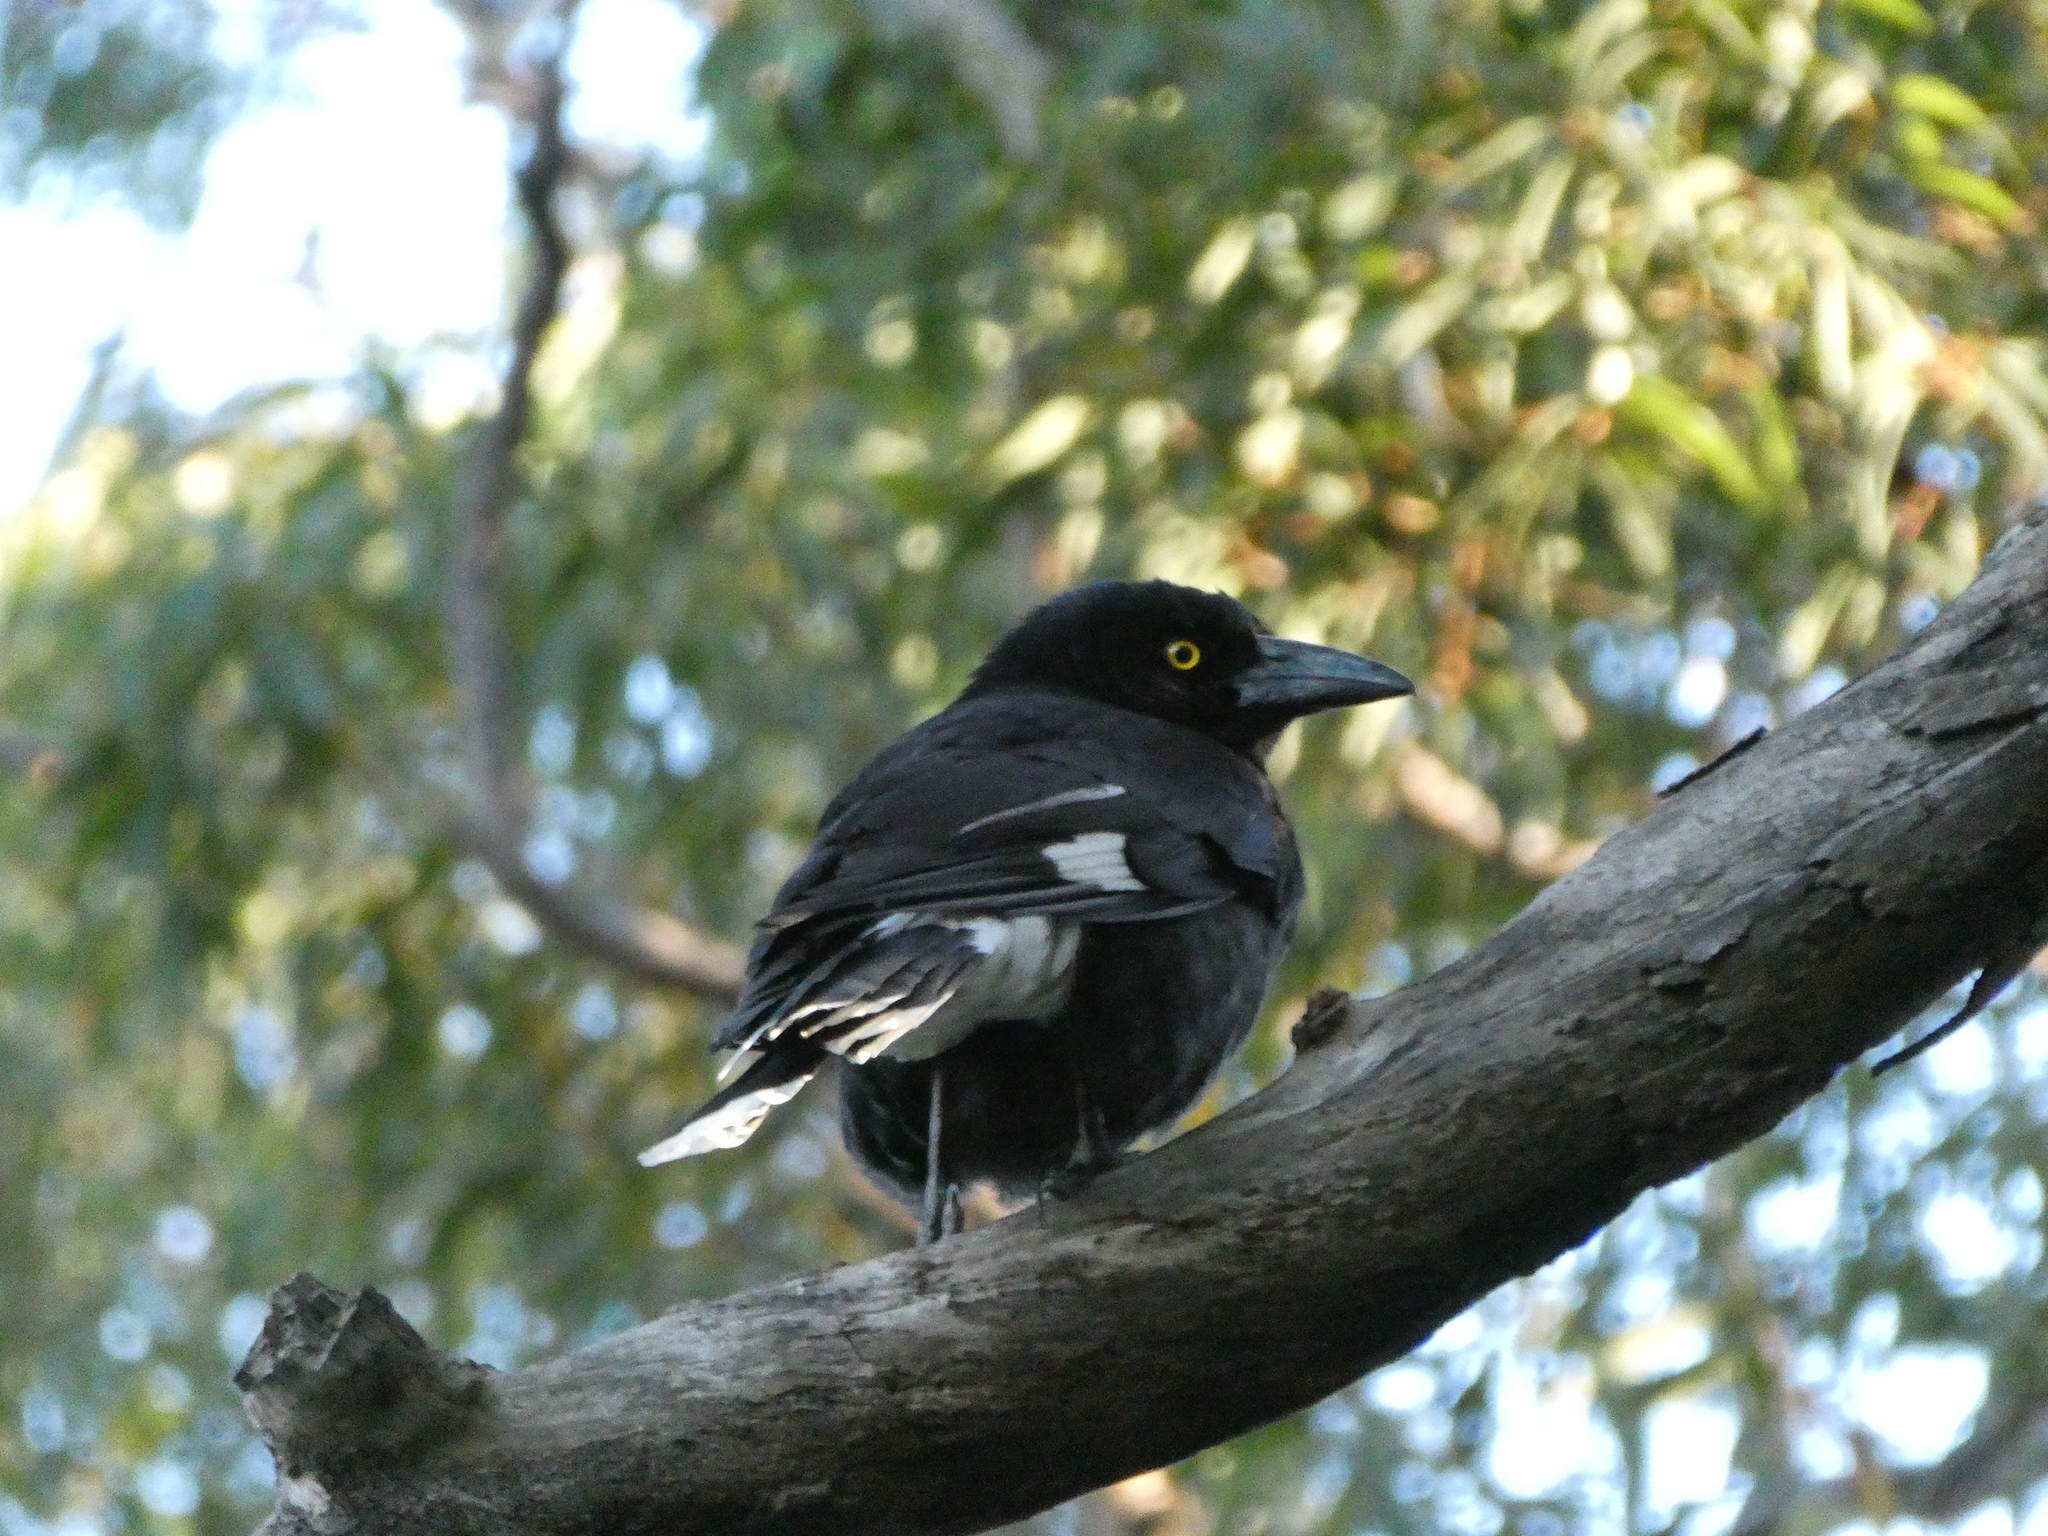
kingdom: Animalia
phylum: Chordata
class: Aves
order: Passeriformes
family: Cracticidae
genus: Strepera
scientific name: Strepera graculina
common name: Pied currawong
